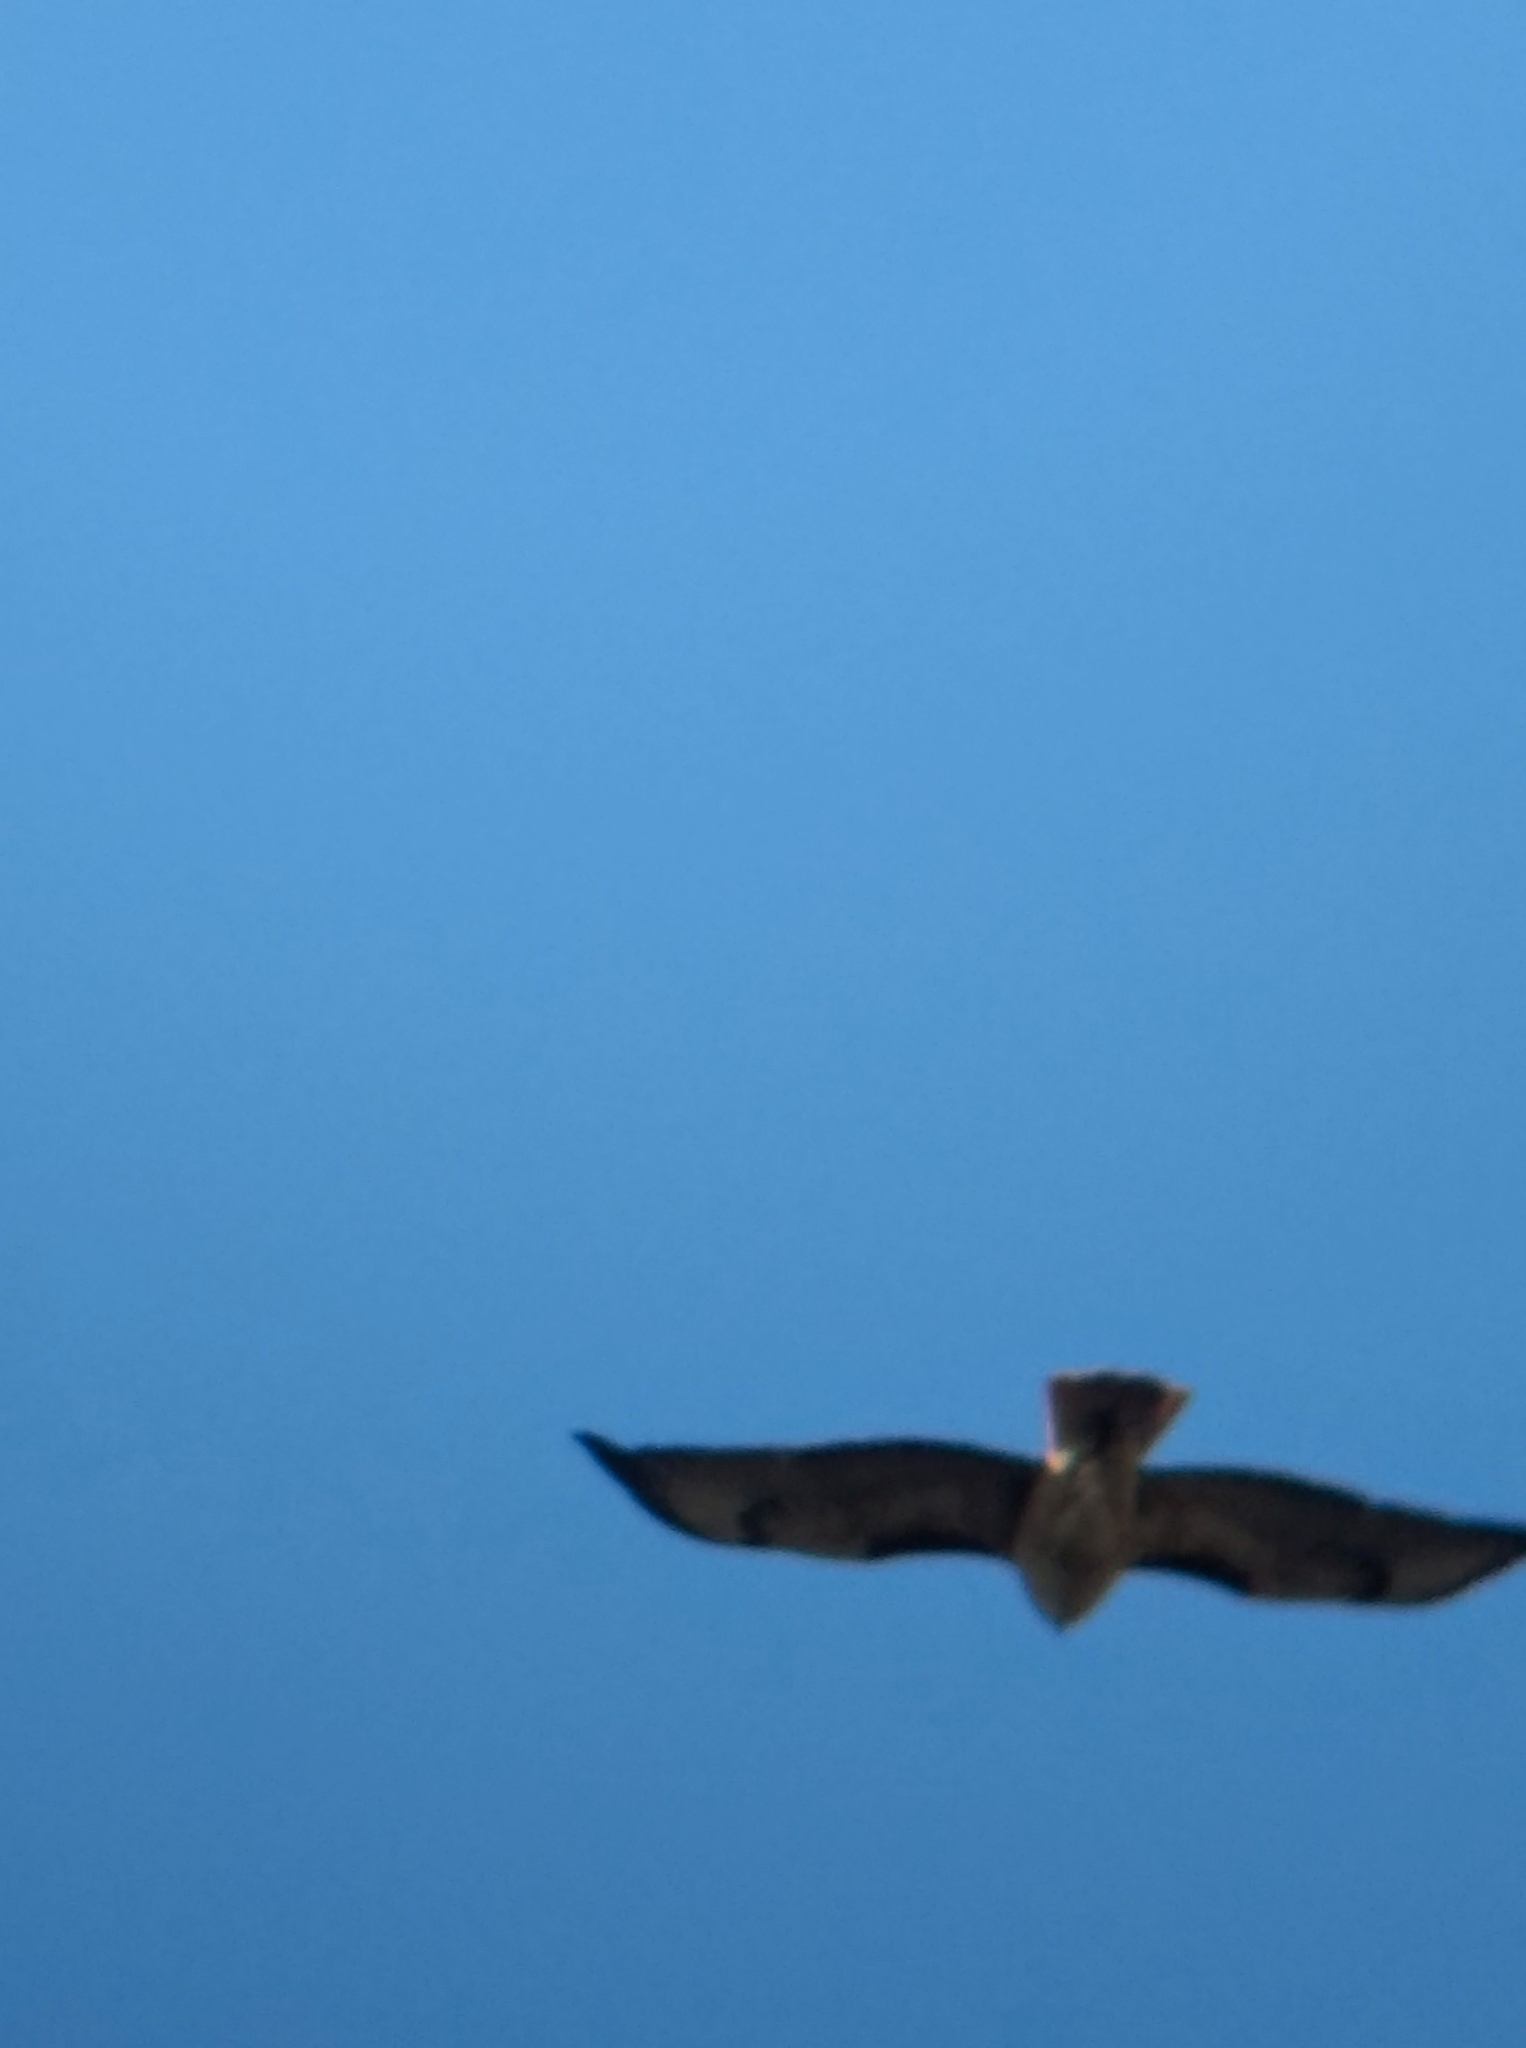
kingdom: Animalia
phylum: Chordata
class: Aves
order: Accipitriformes
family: Accipitridae
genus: Buteo
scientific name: Buteo jamaicensis
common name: Red-tailed hawk
